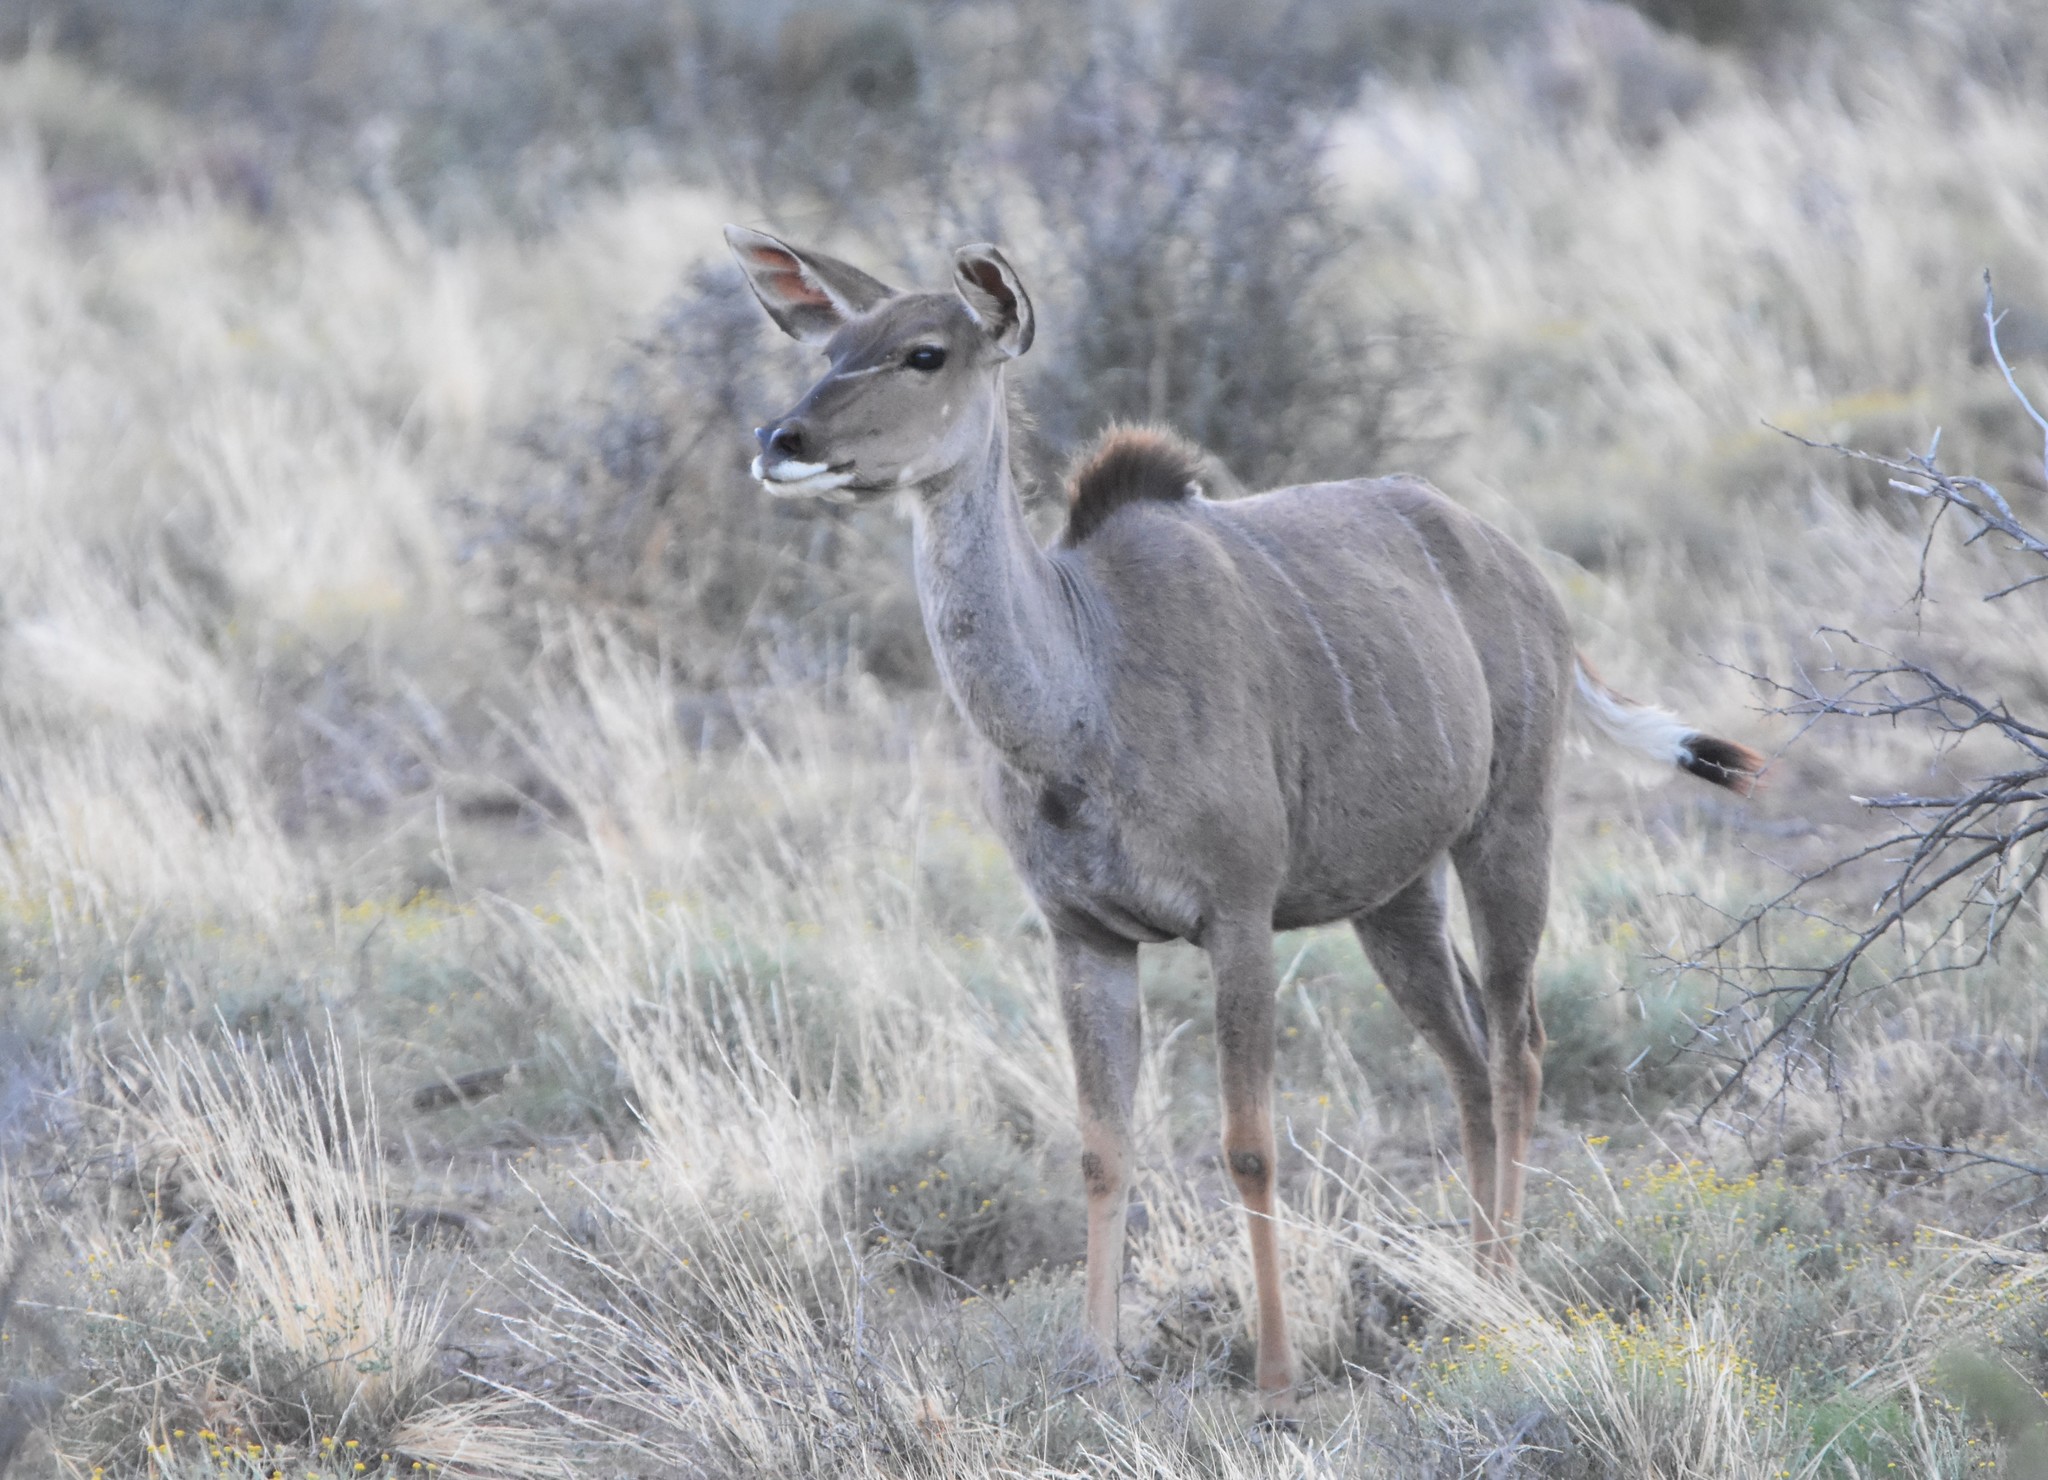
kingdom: Animalia
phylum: Chordata
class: Mammalia
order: Artiodactyla
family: Bovidae
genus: Tragelaphus
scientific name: Tragelaphus strepsiceros
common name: Greater kudu
